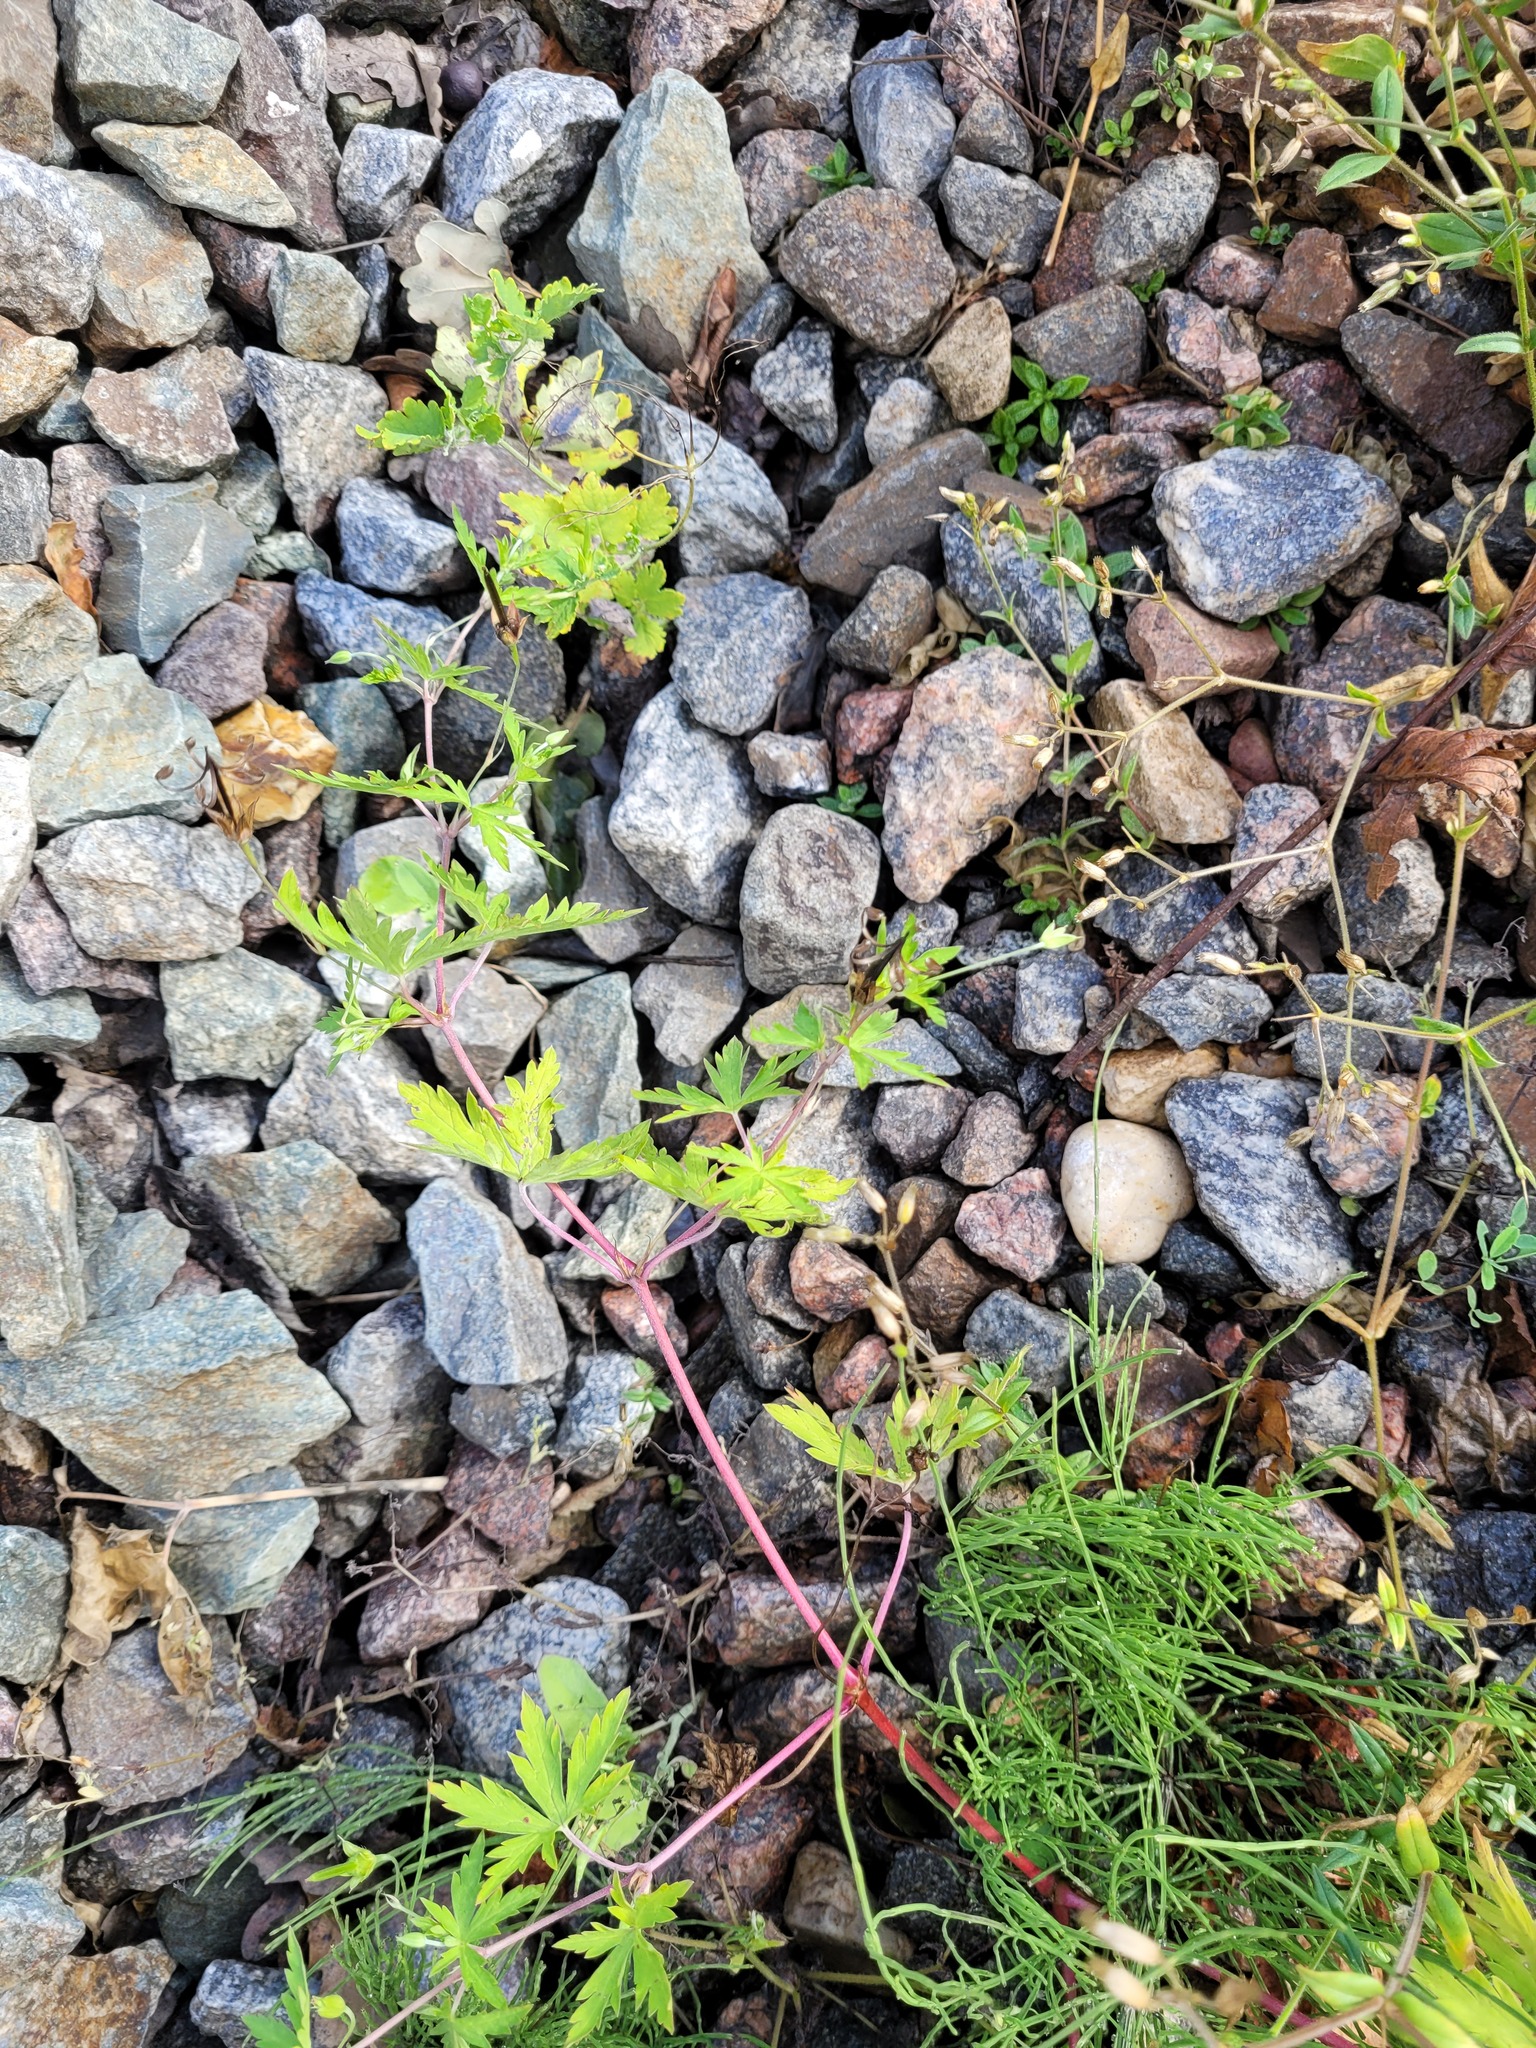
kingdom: Plantae
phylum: Tracheophyta
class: Magnoliopsida
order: Geraniales
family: Geraniaceae
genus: Geranium
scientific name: Geranium sibiricum
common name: Siberian crane's-bill
